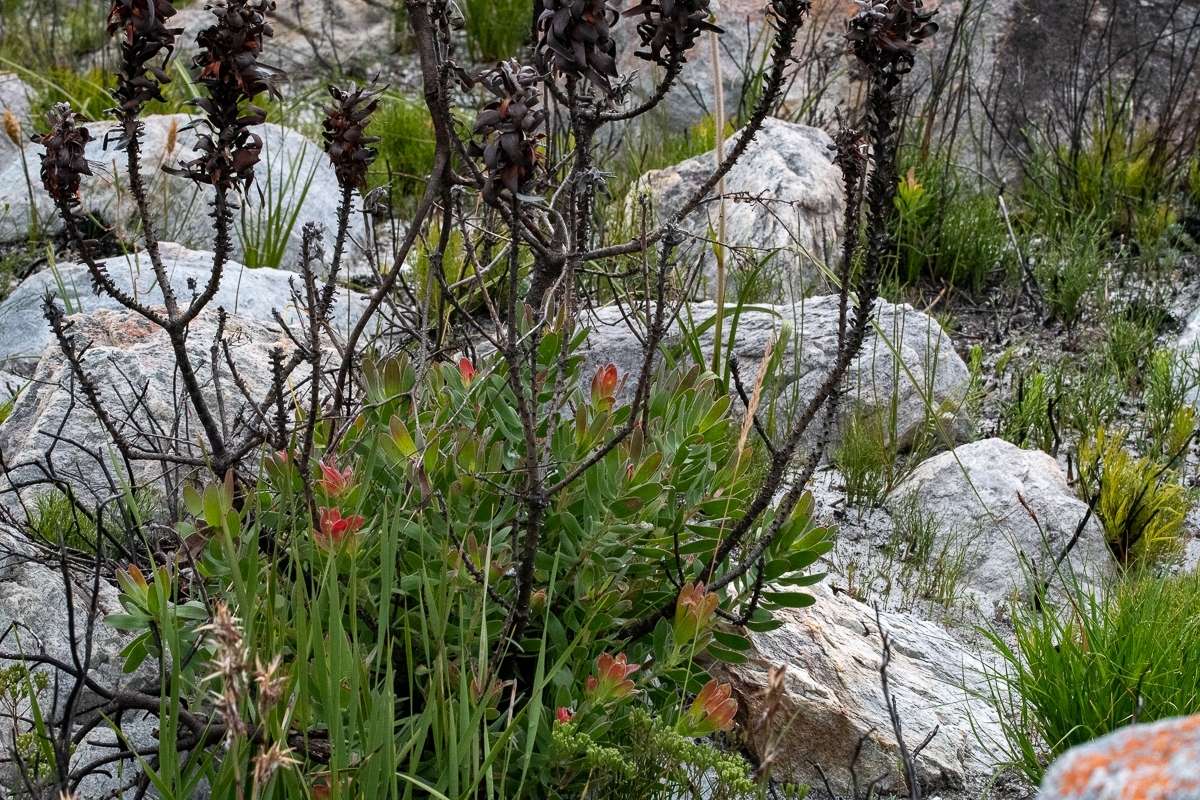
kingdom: Plantae
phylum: Tracheophyta
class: Magnoliopsida
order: Proteales
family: Proteaceae
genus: Mimetes
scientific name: Mimetes cucullatus
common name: Common pagoda
